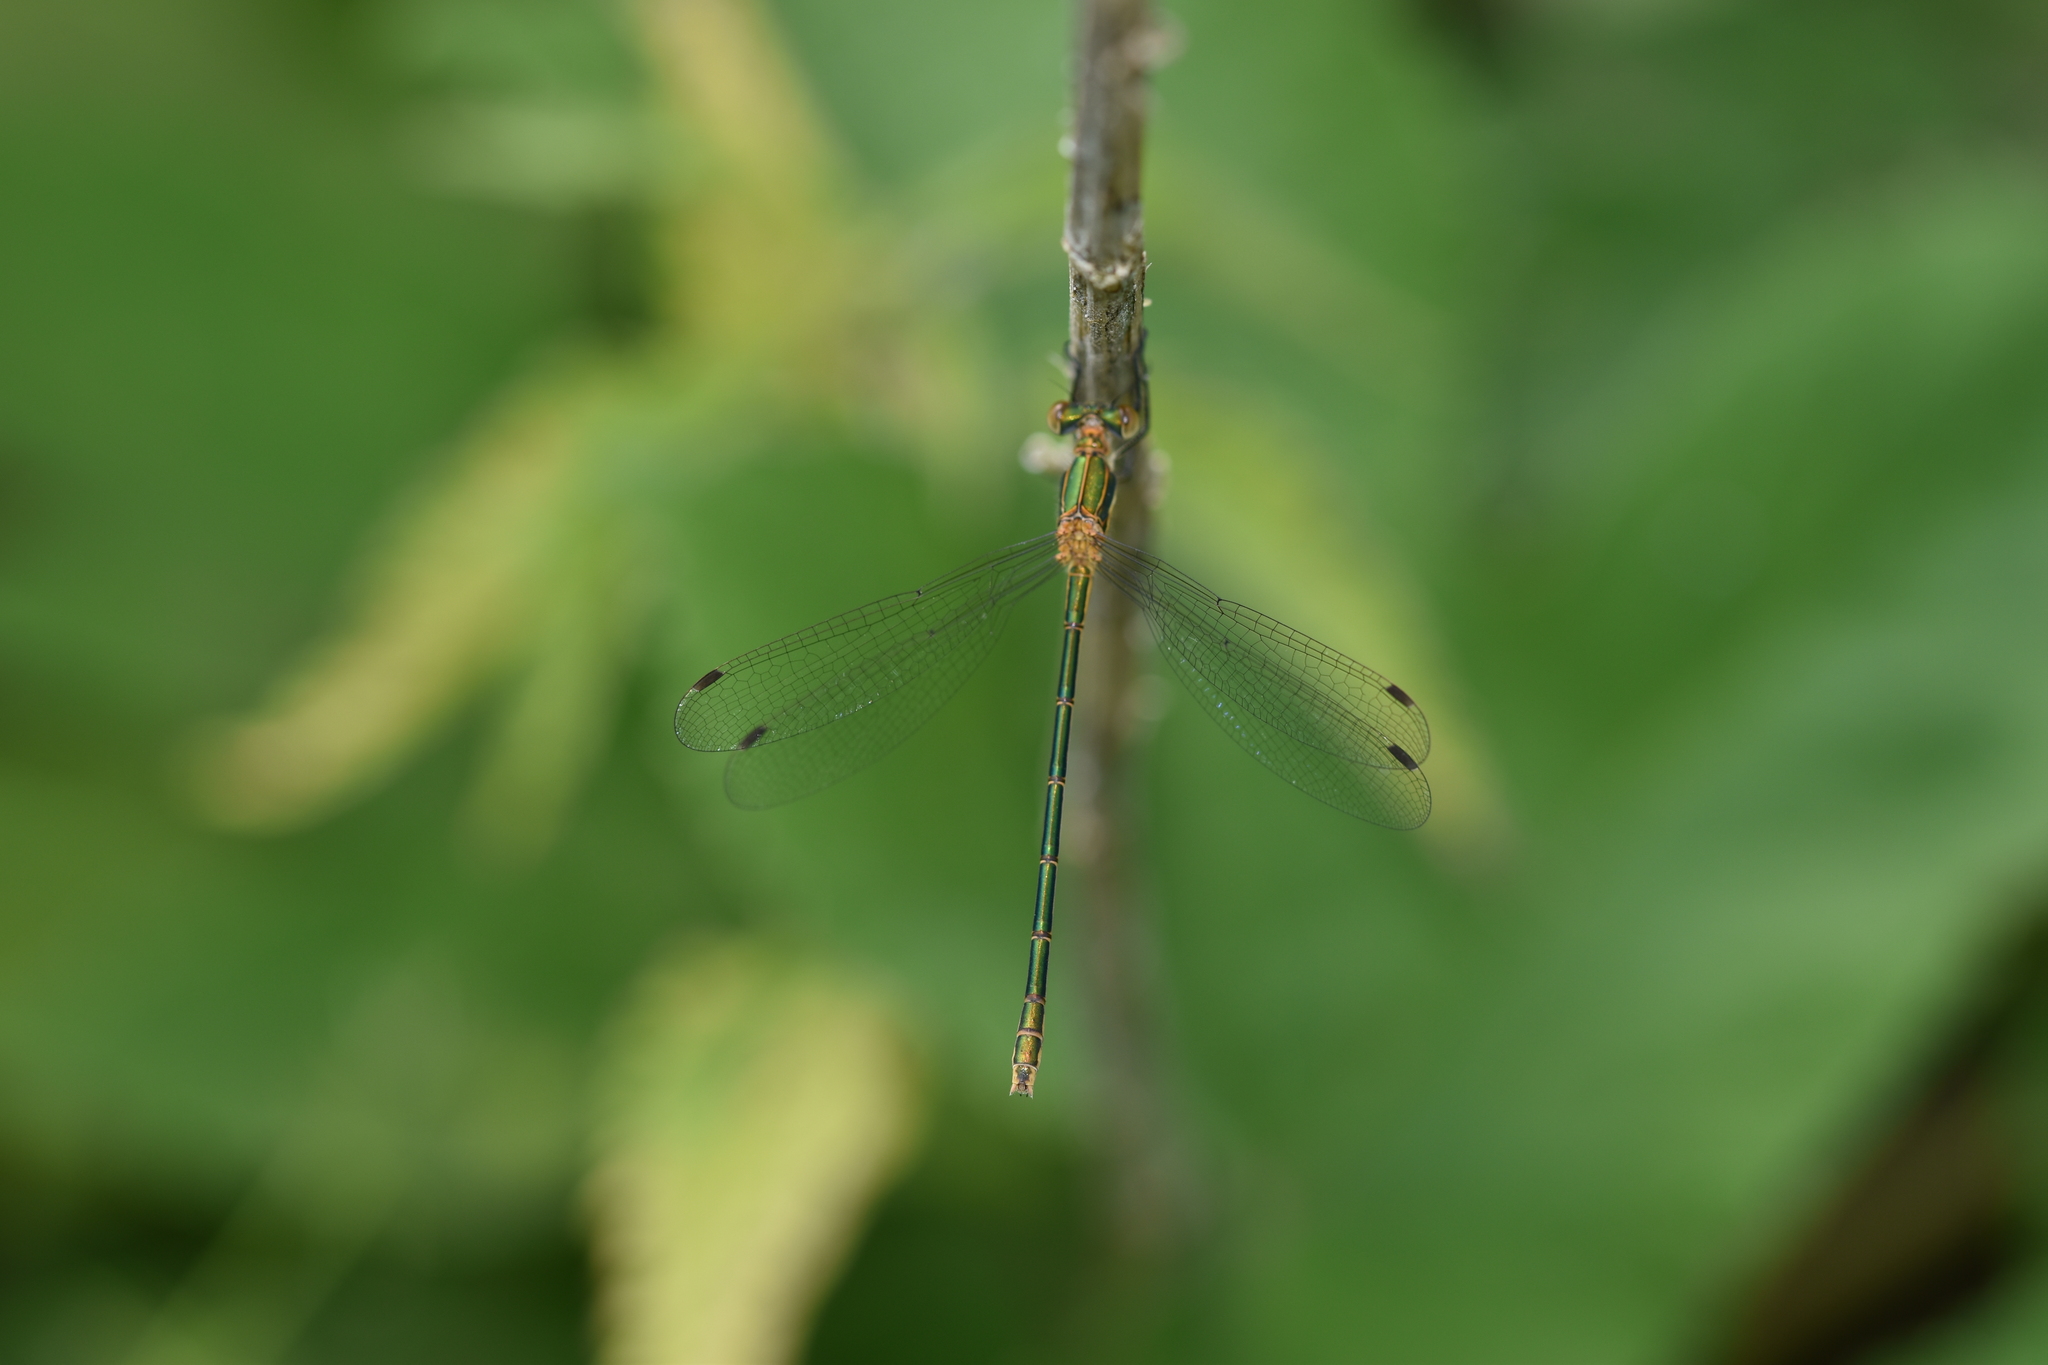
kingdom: Animalia
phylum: Arthropoda
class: Insecta
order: Odonata
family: Lestidae
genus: Lestes
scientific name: Lestes sponsa
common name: Common spreadwing
